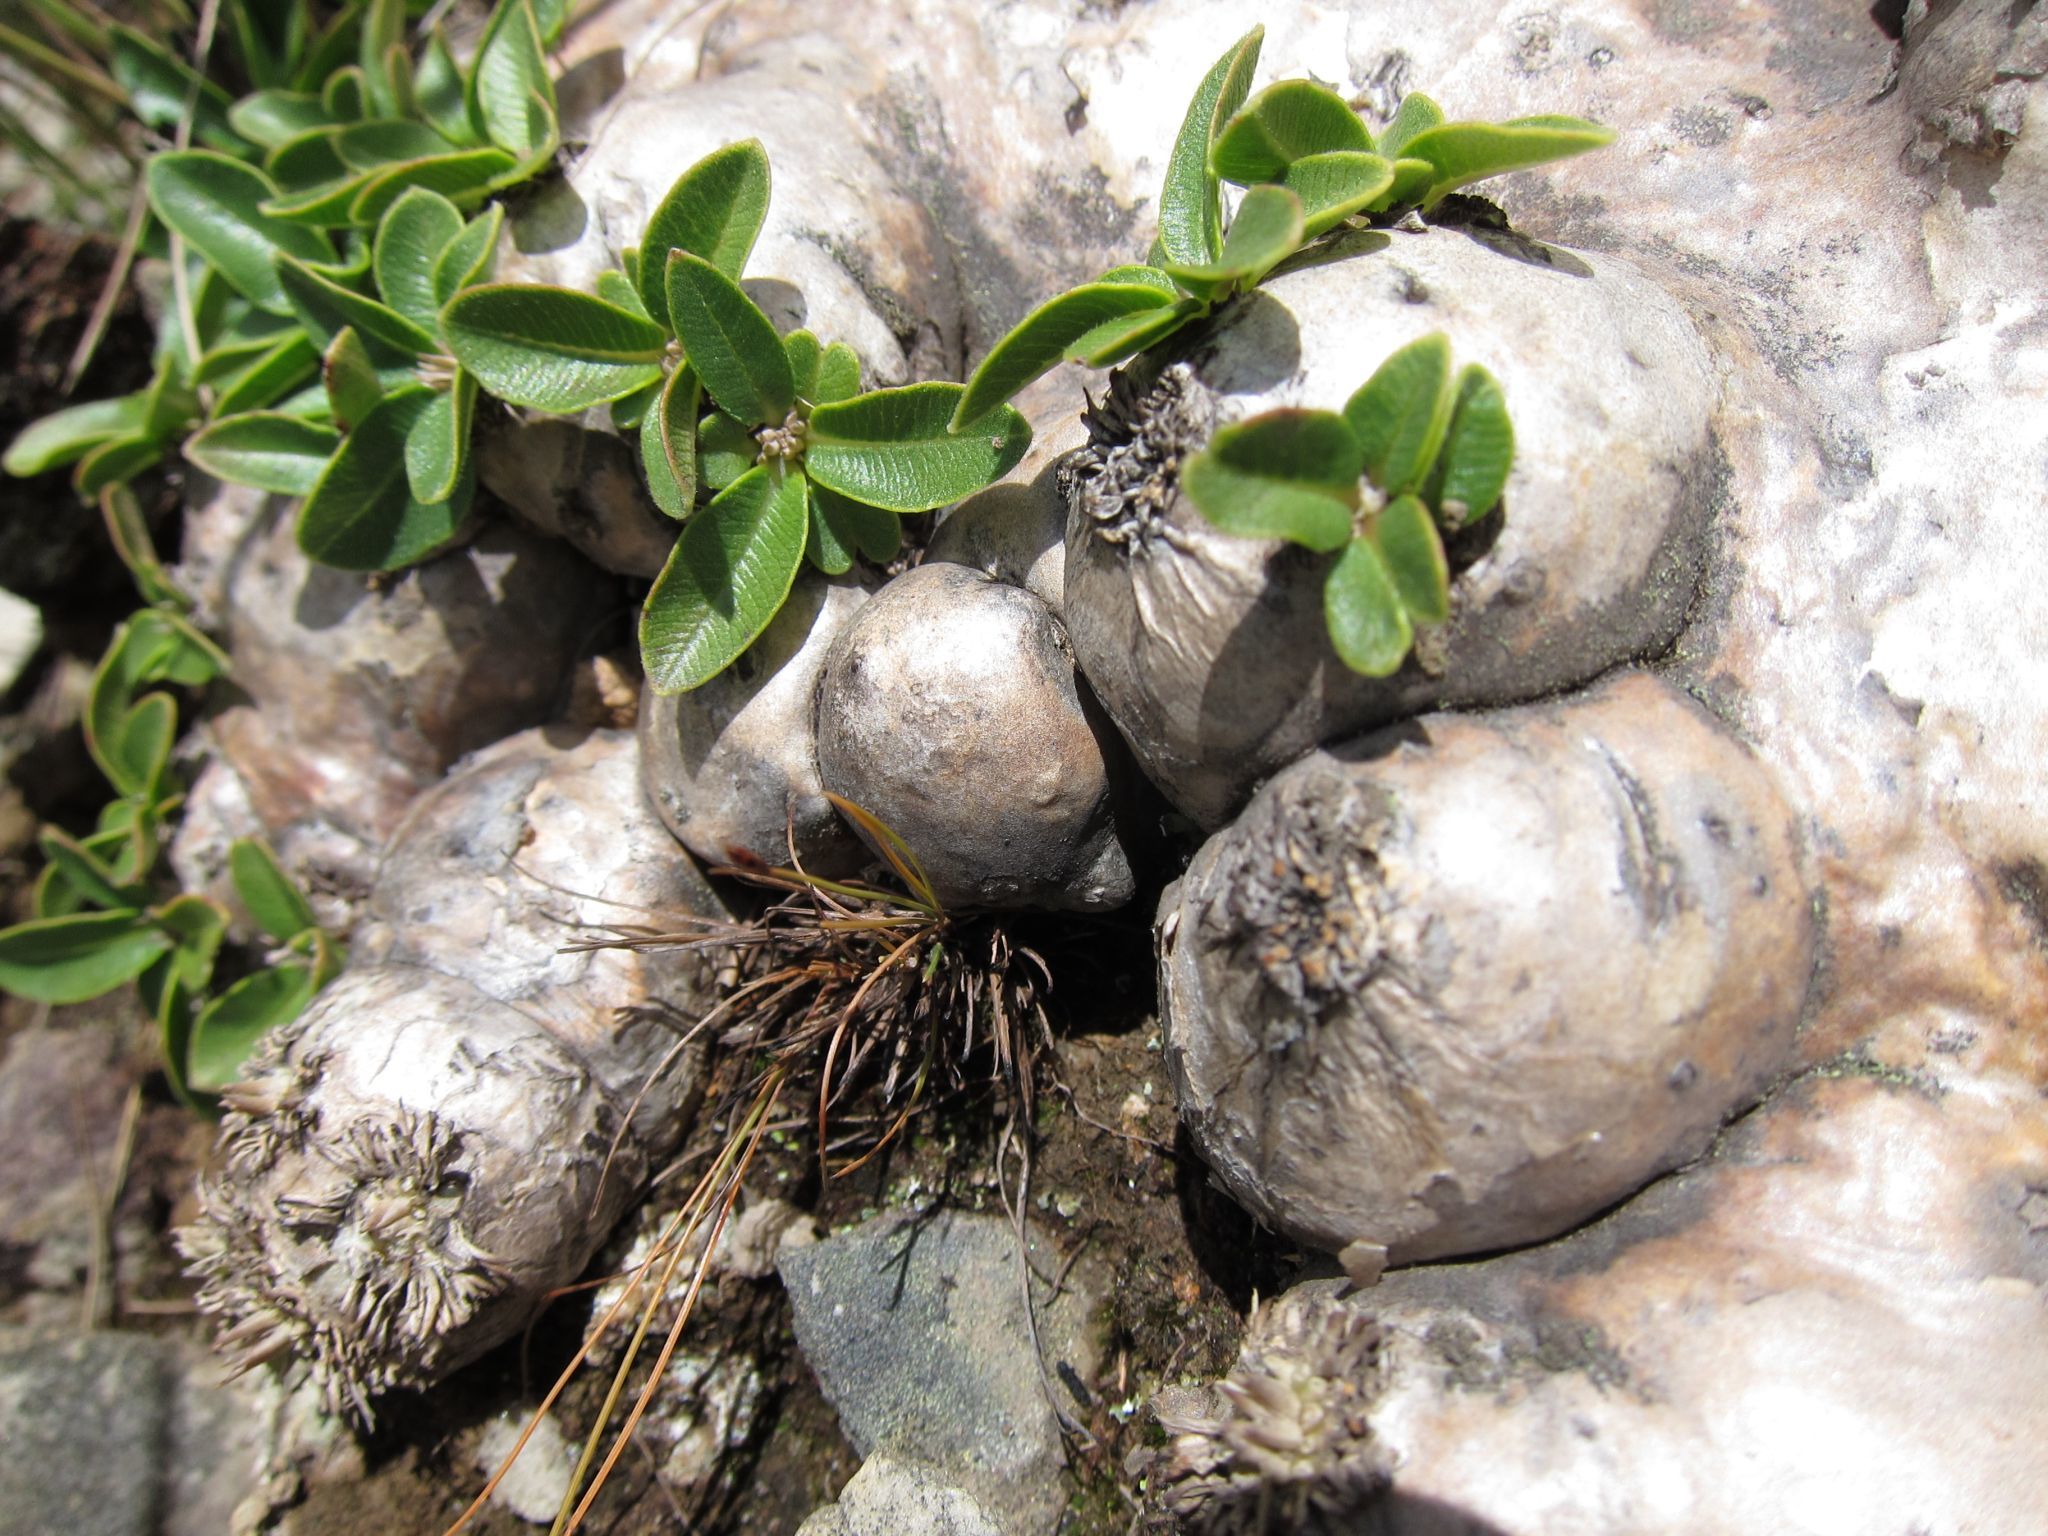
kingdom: Plantae
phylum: Tracheophyta
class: Magnoliopsida
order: Gentianales
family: Apocynaceae
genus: Pachypodium
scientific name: Pachypodium brevicaule
